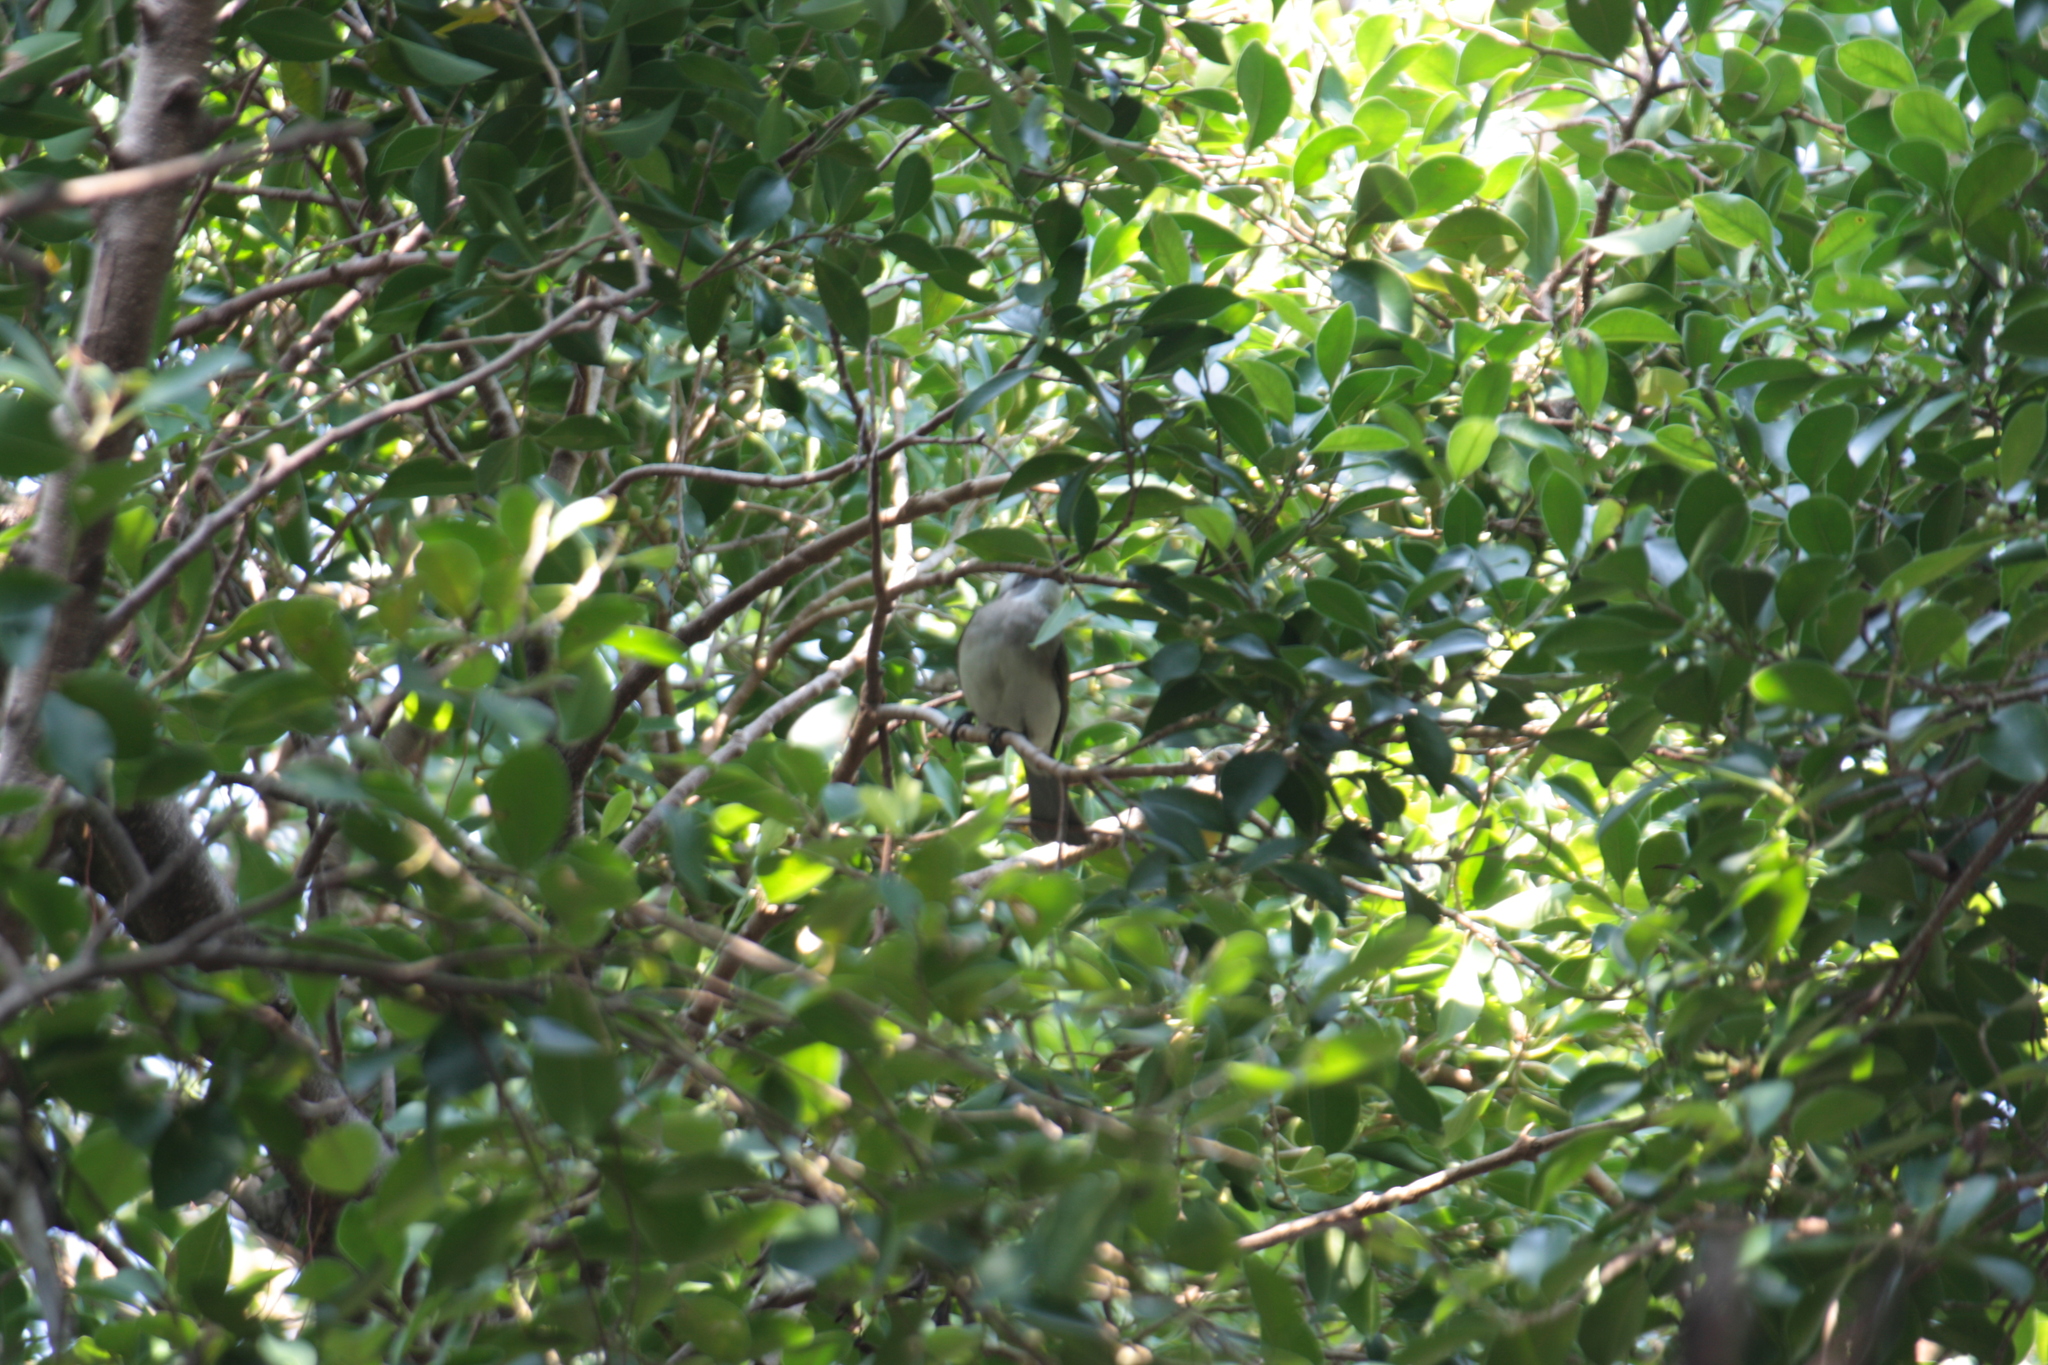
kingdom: Animalia
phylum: Chordata
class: Aves
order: Passeriformes
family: Pycnonotidae
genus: Pycnonotus
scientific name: Pycnonotus sinensis
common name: Light-vented bulbul
